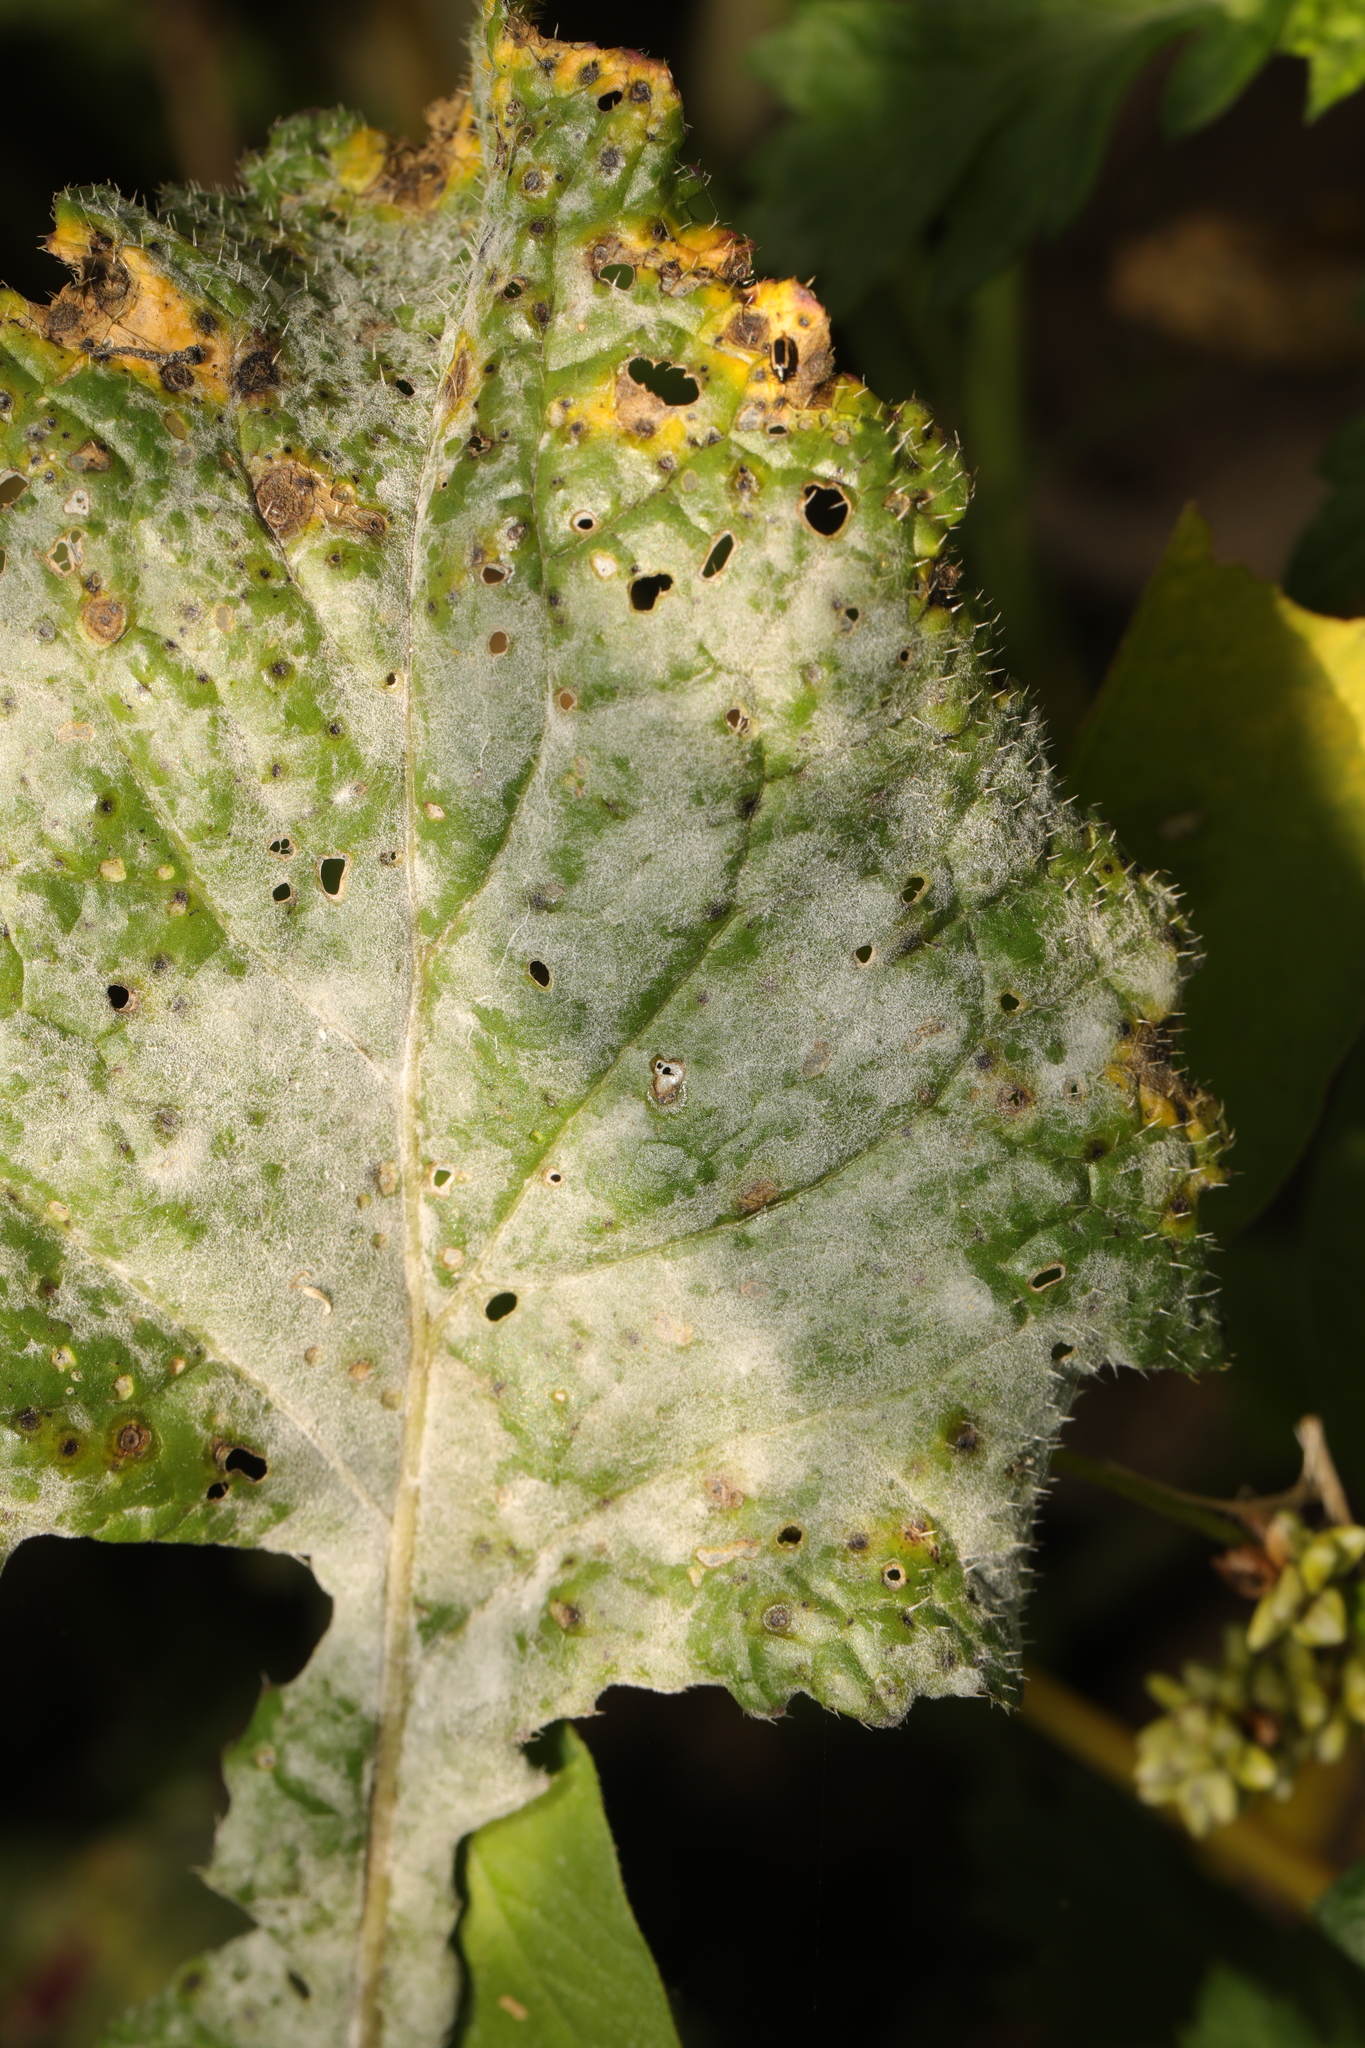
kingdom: Fungi
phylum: Ascomycota
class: Leotiomycetes
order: Helotiales
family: Erysiphaceae
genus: Erysiphe
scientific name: Erysiphe heraclei
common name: Umbellifer mildew
